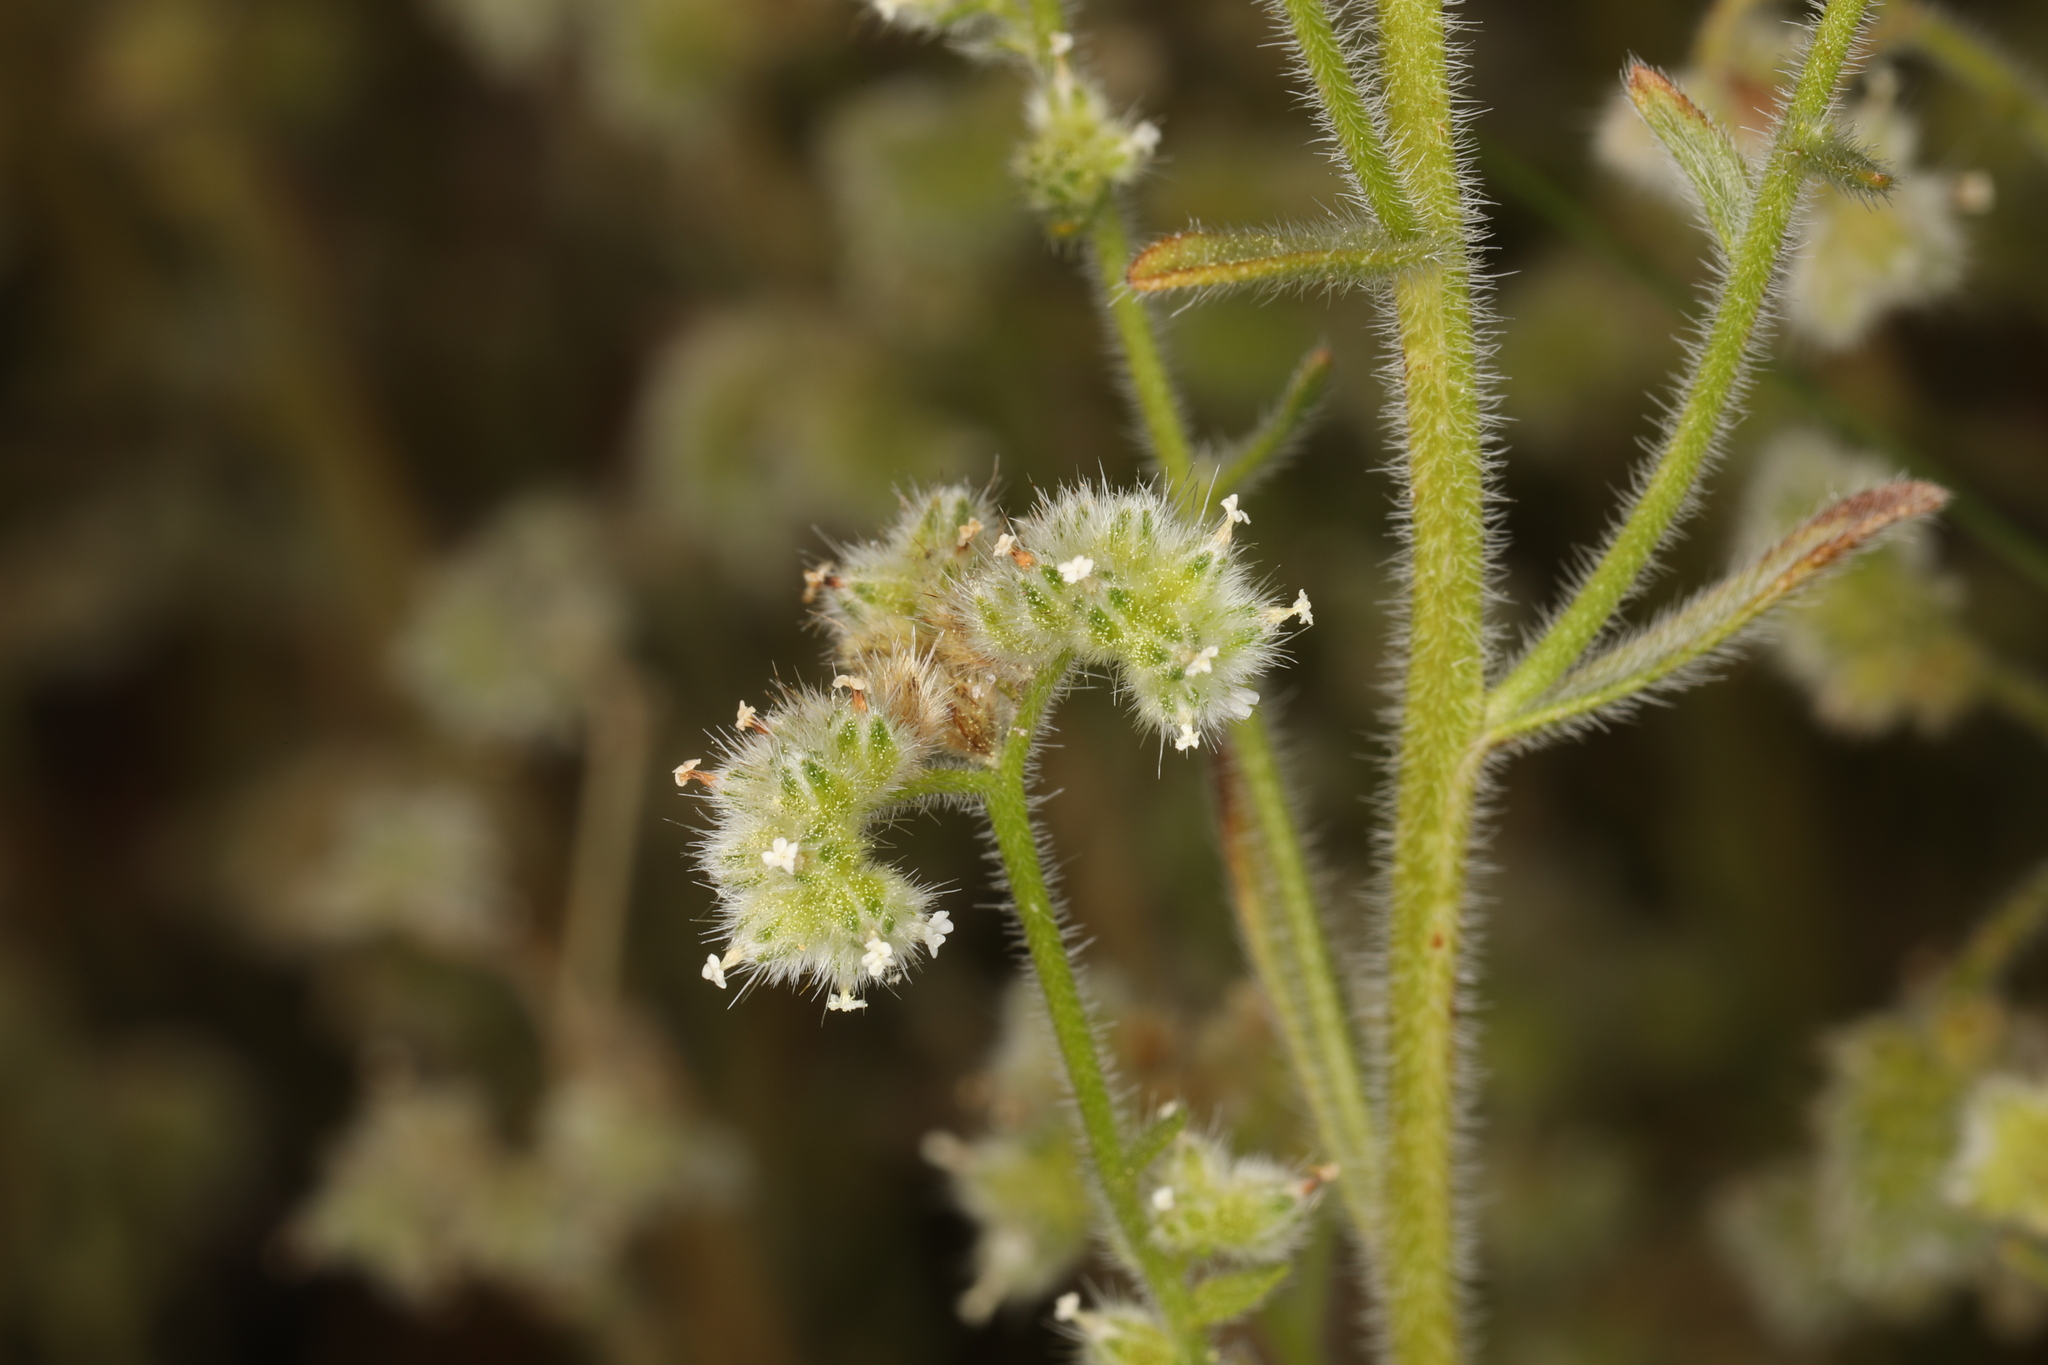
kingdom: Plantae
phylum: Tracheophyta
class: Magnoliopsida
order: Boraginales
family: Boraginaceae
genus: Cryptantha
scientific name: Cryptantha gracilis
